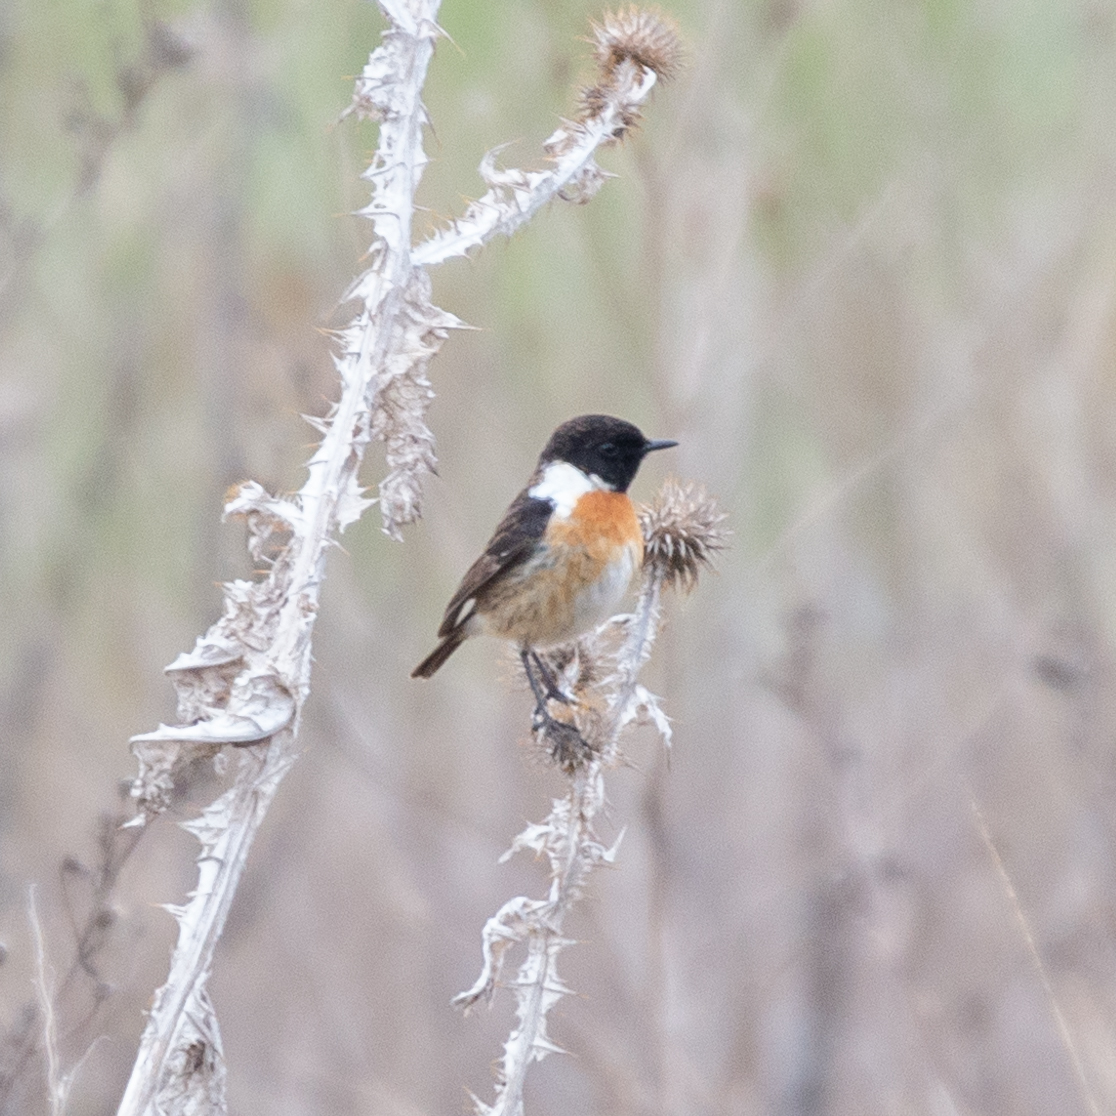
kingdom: Animalia
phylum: Chordata
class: Aves
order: Passeriformes
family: Muscicapidae
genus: Saxicola
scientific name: Saxicola rubicola
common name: European stonechat
